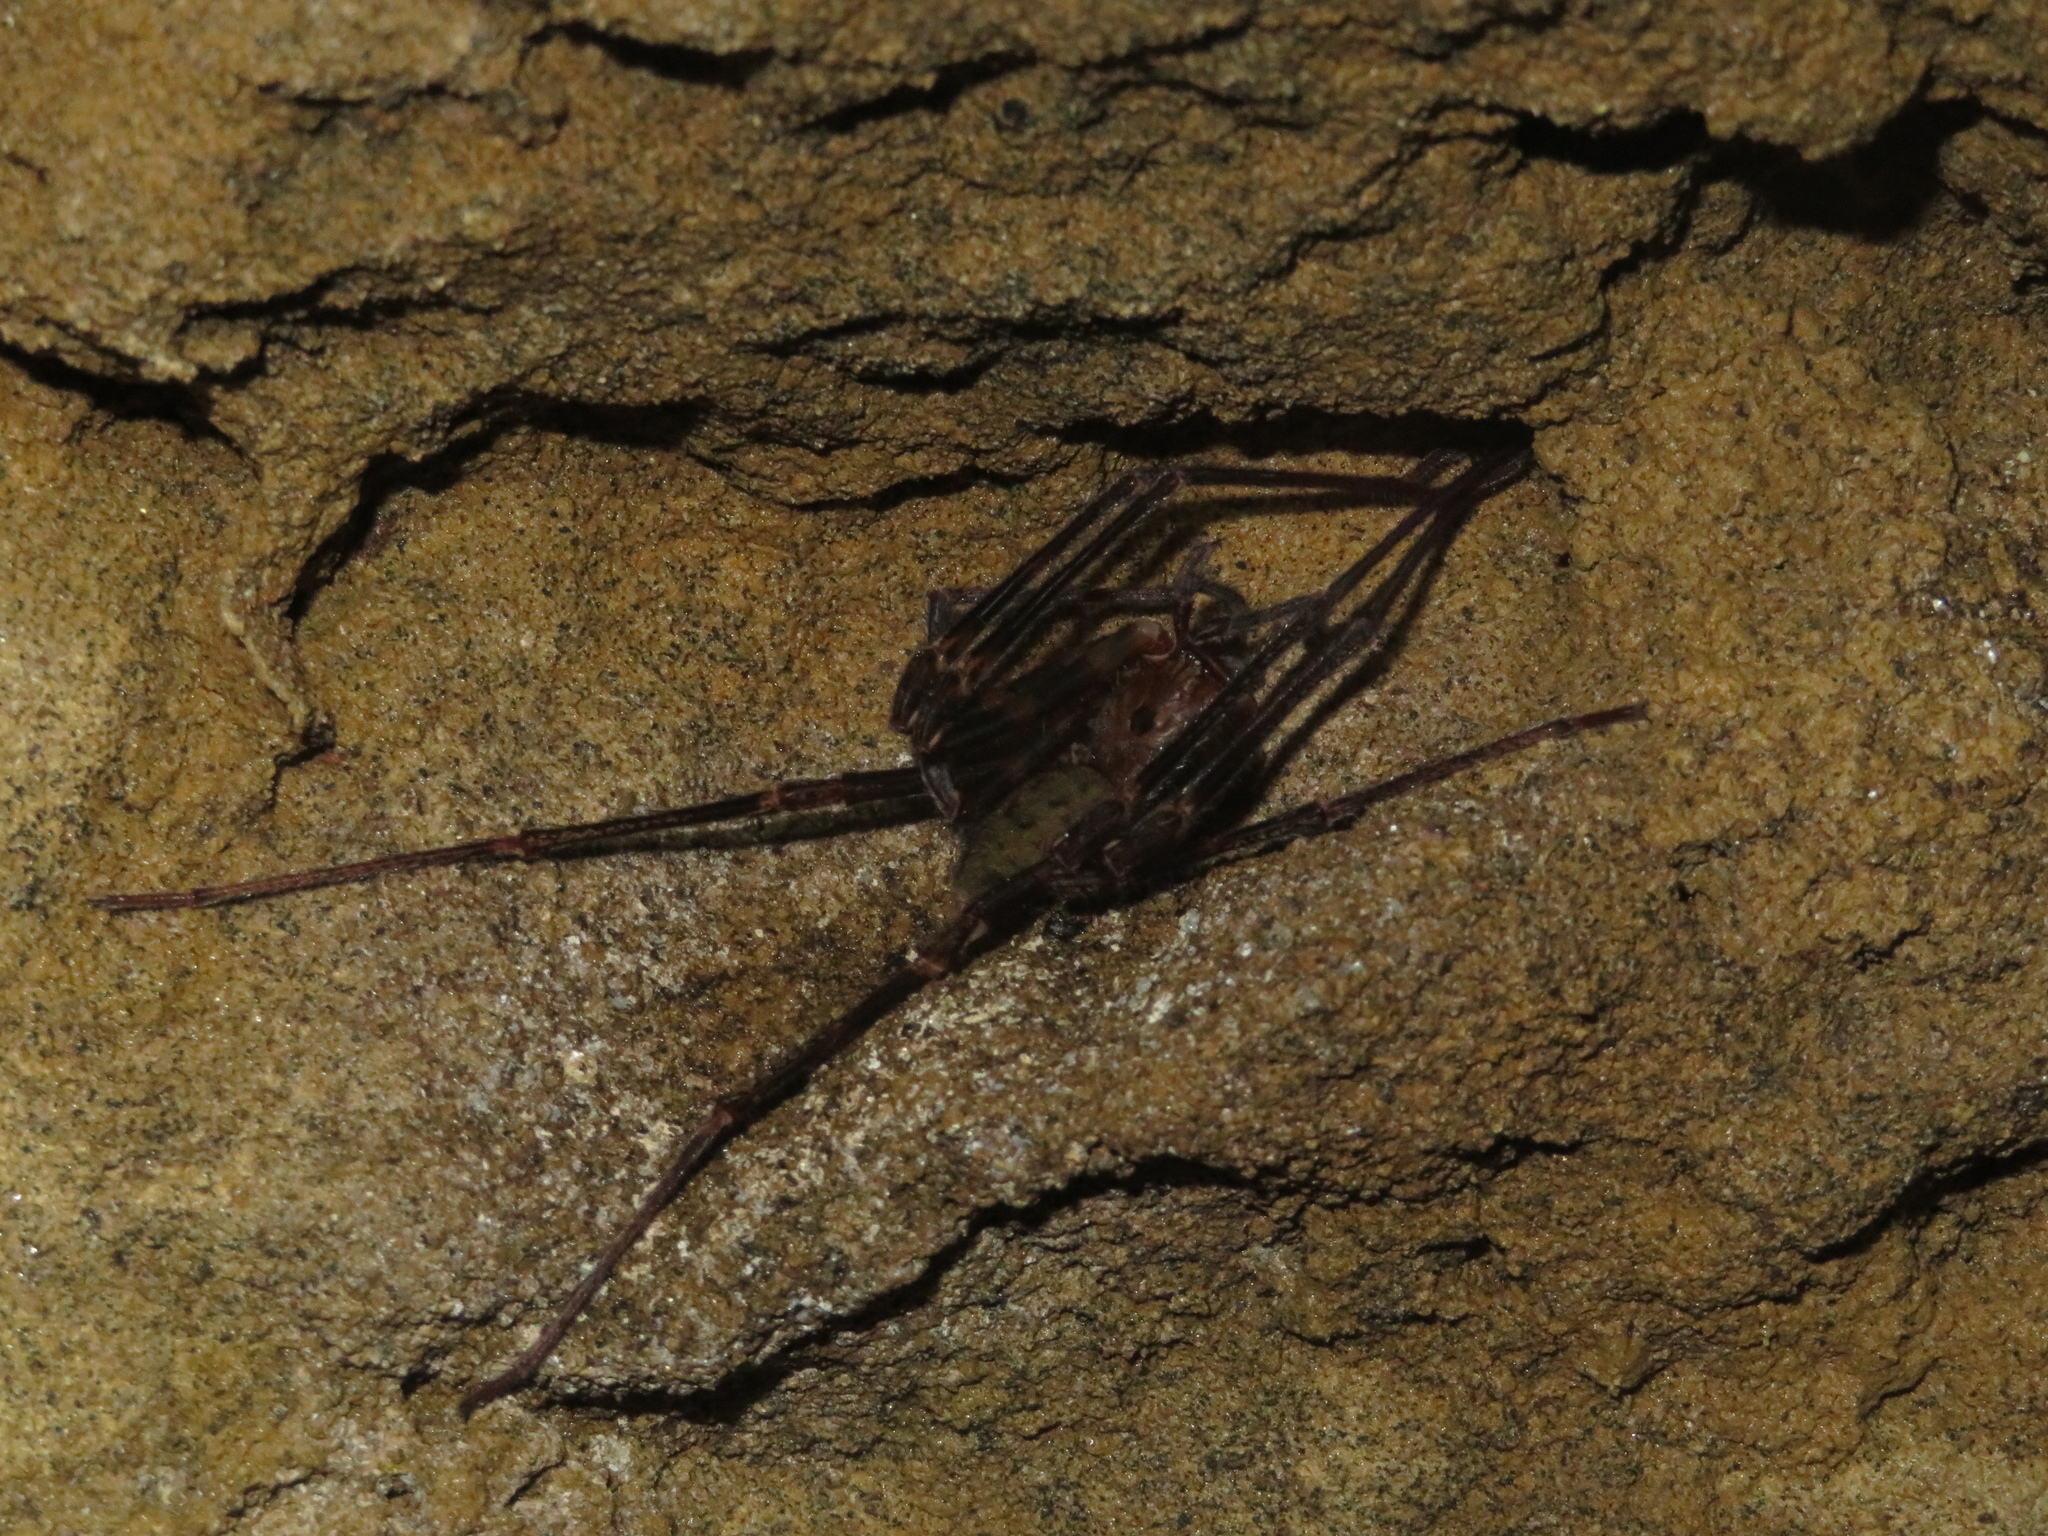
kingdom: Animalia
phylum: Arthropoda
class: Arachnida
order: Araneae
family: Gradungulidae
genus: Spelungula
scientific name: Spelungula cavernicola
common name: Nelson cave spider
